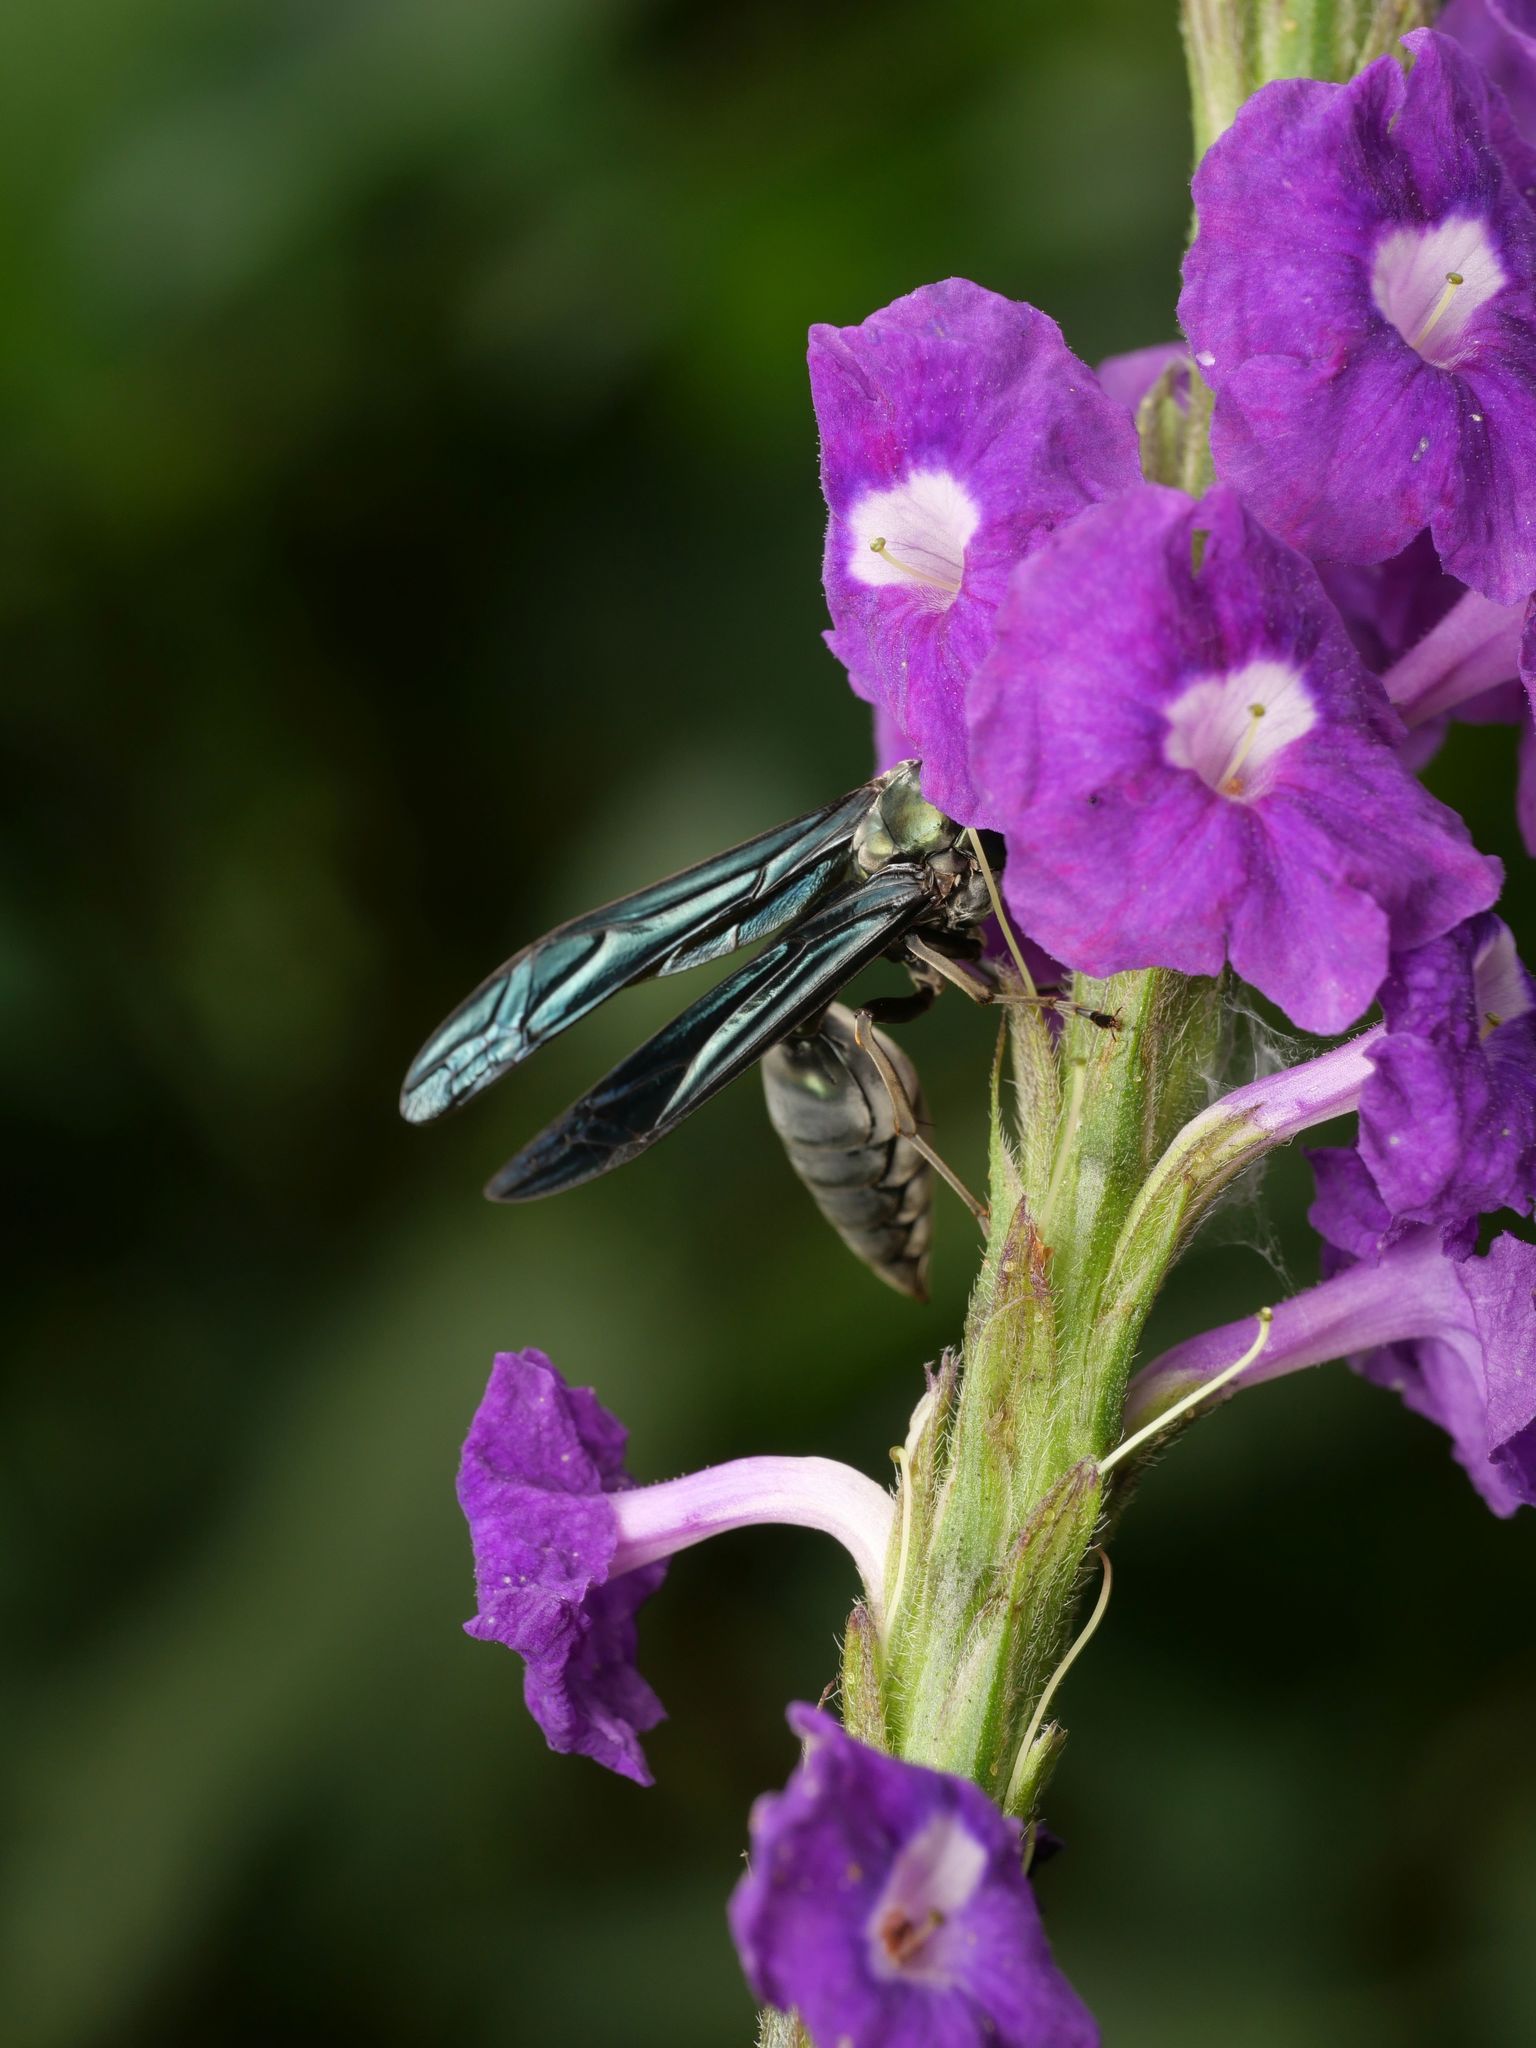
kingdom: Animalia
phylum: Arthropoda
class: Insecta
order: Hymenoptera
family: Vespidae
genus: Synoeca
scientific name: Synoeca septentrionalis
